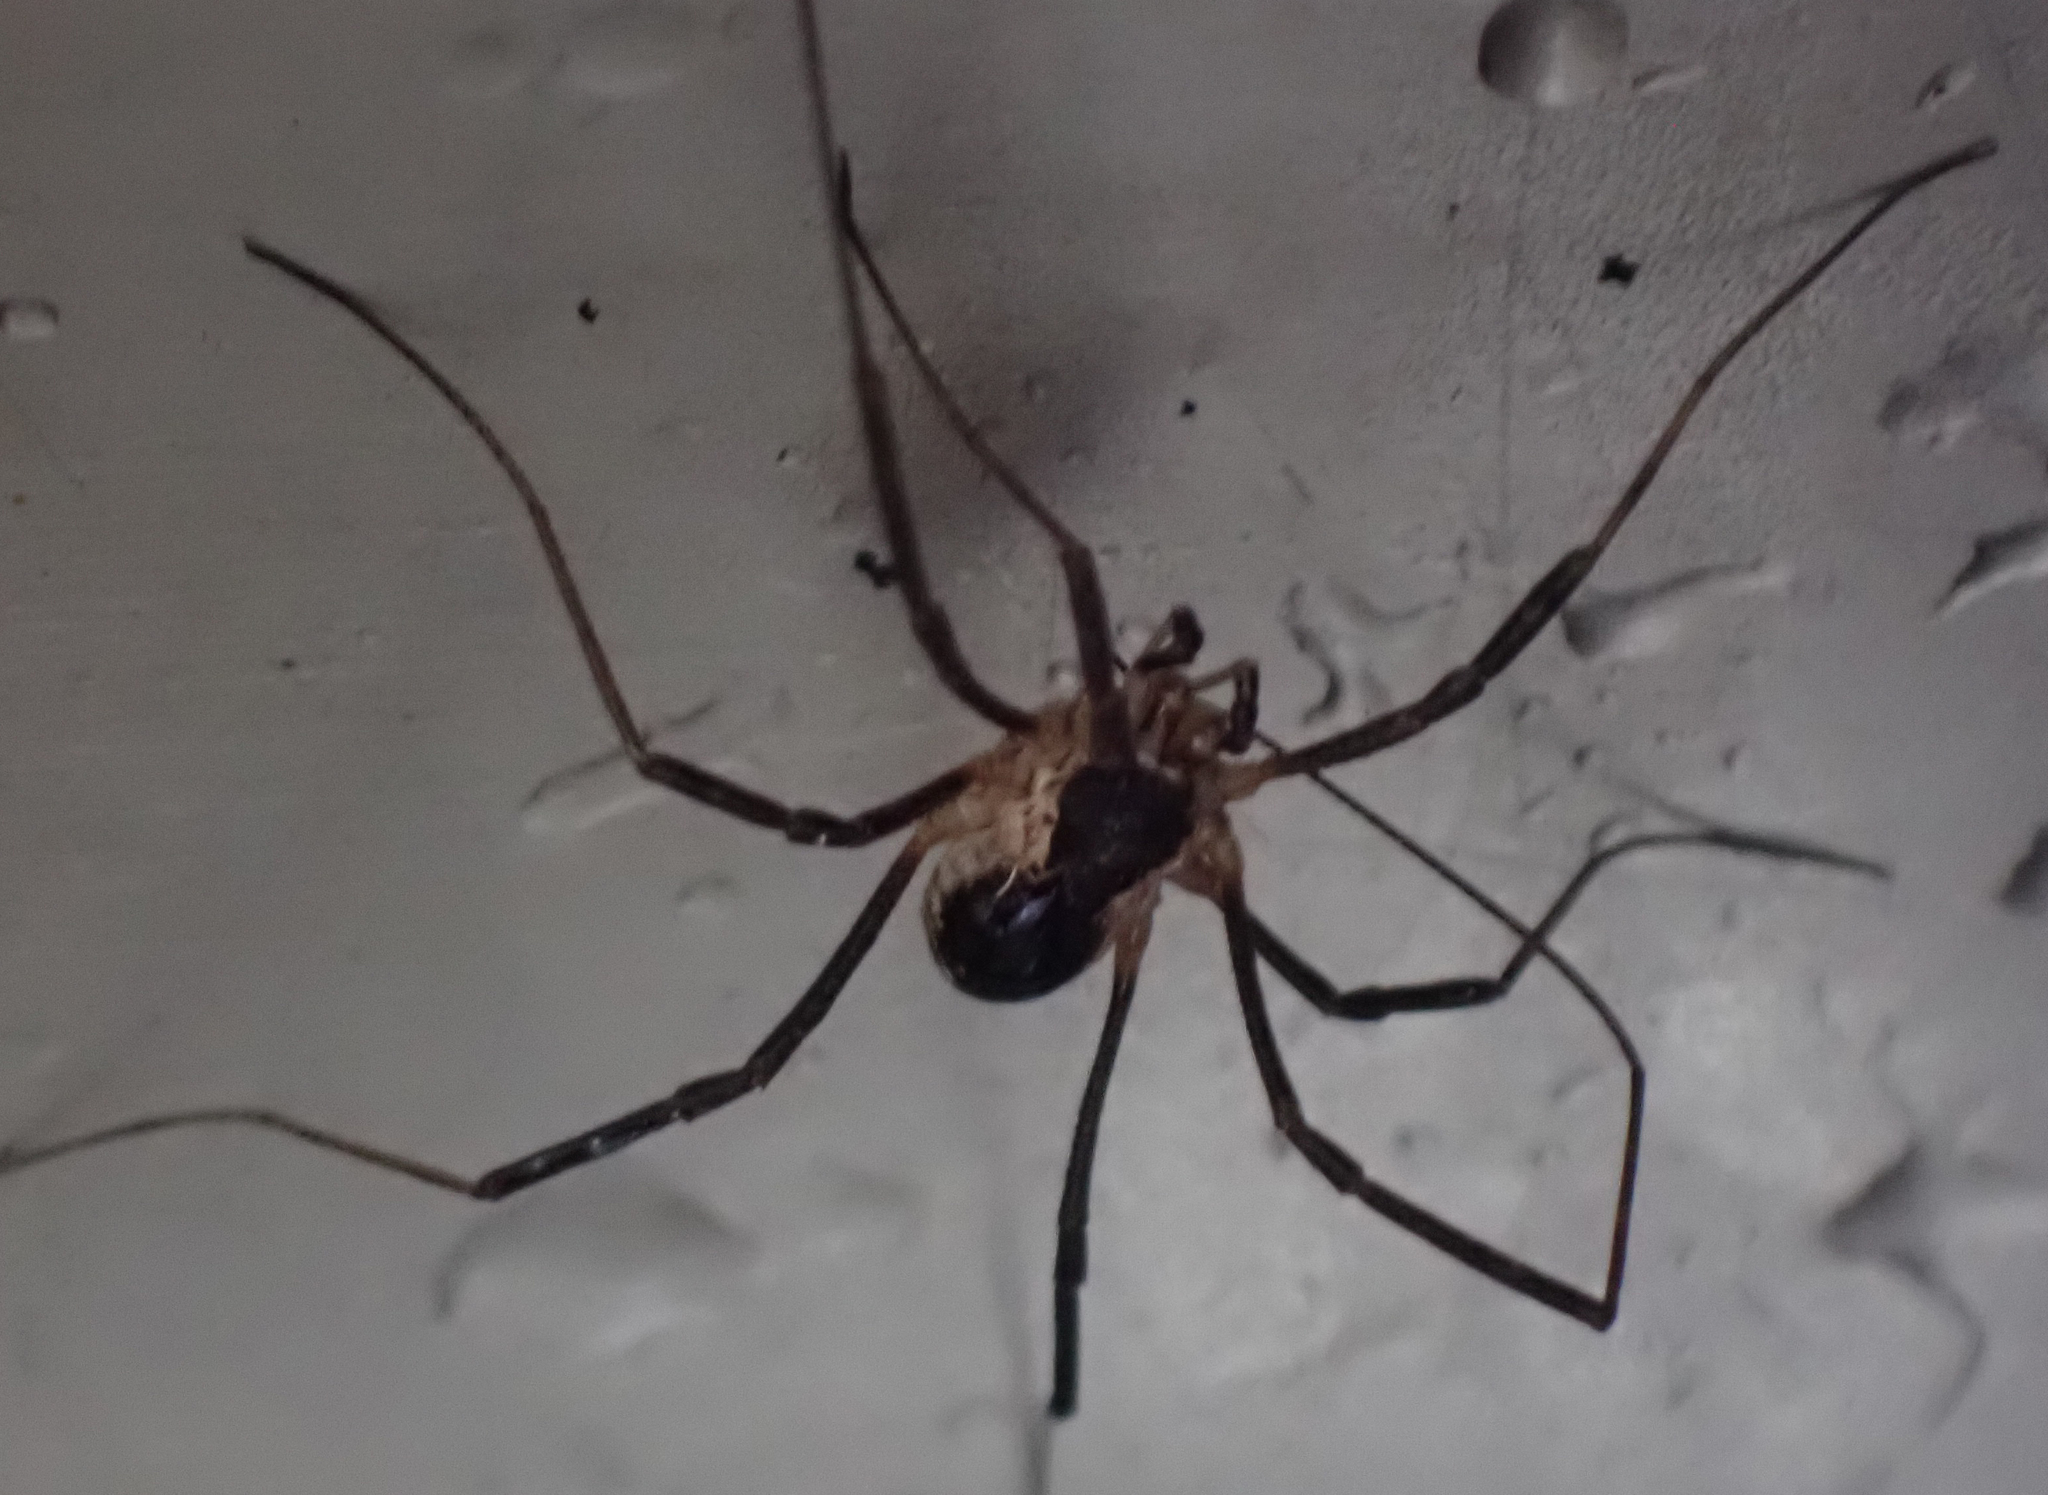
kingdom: Animalia
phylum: Arthropoda
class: Arachnida
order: Opiliones
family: Phalangiidae
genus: Mitopus
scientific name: Mitopus morio
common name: Saddleback harvestman
